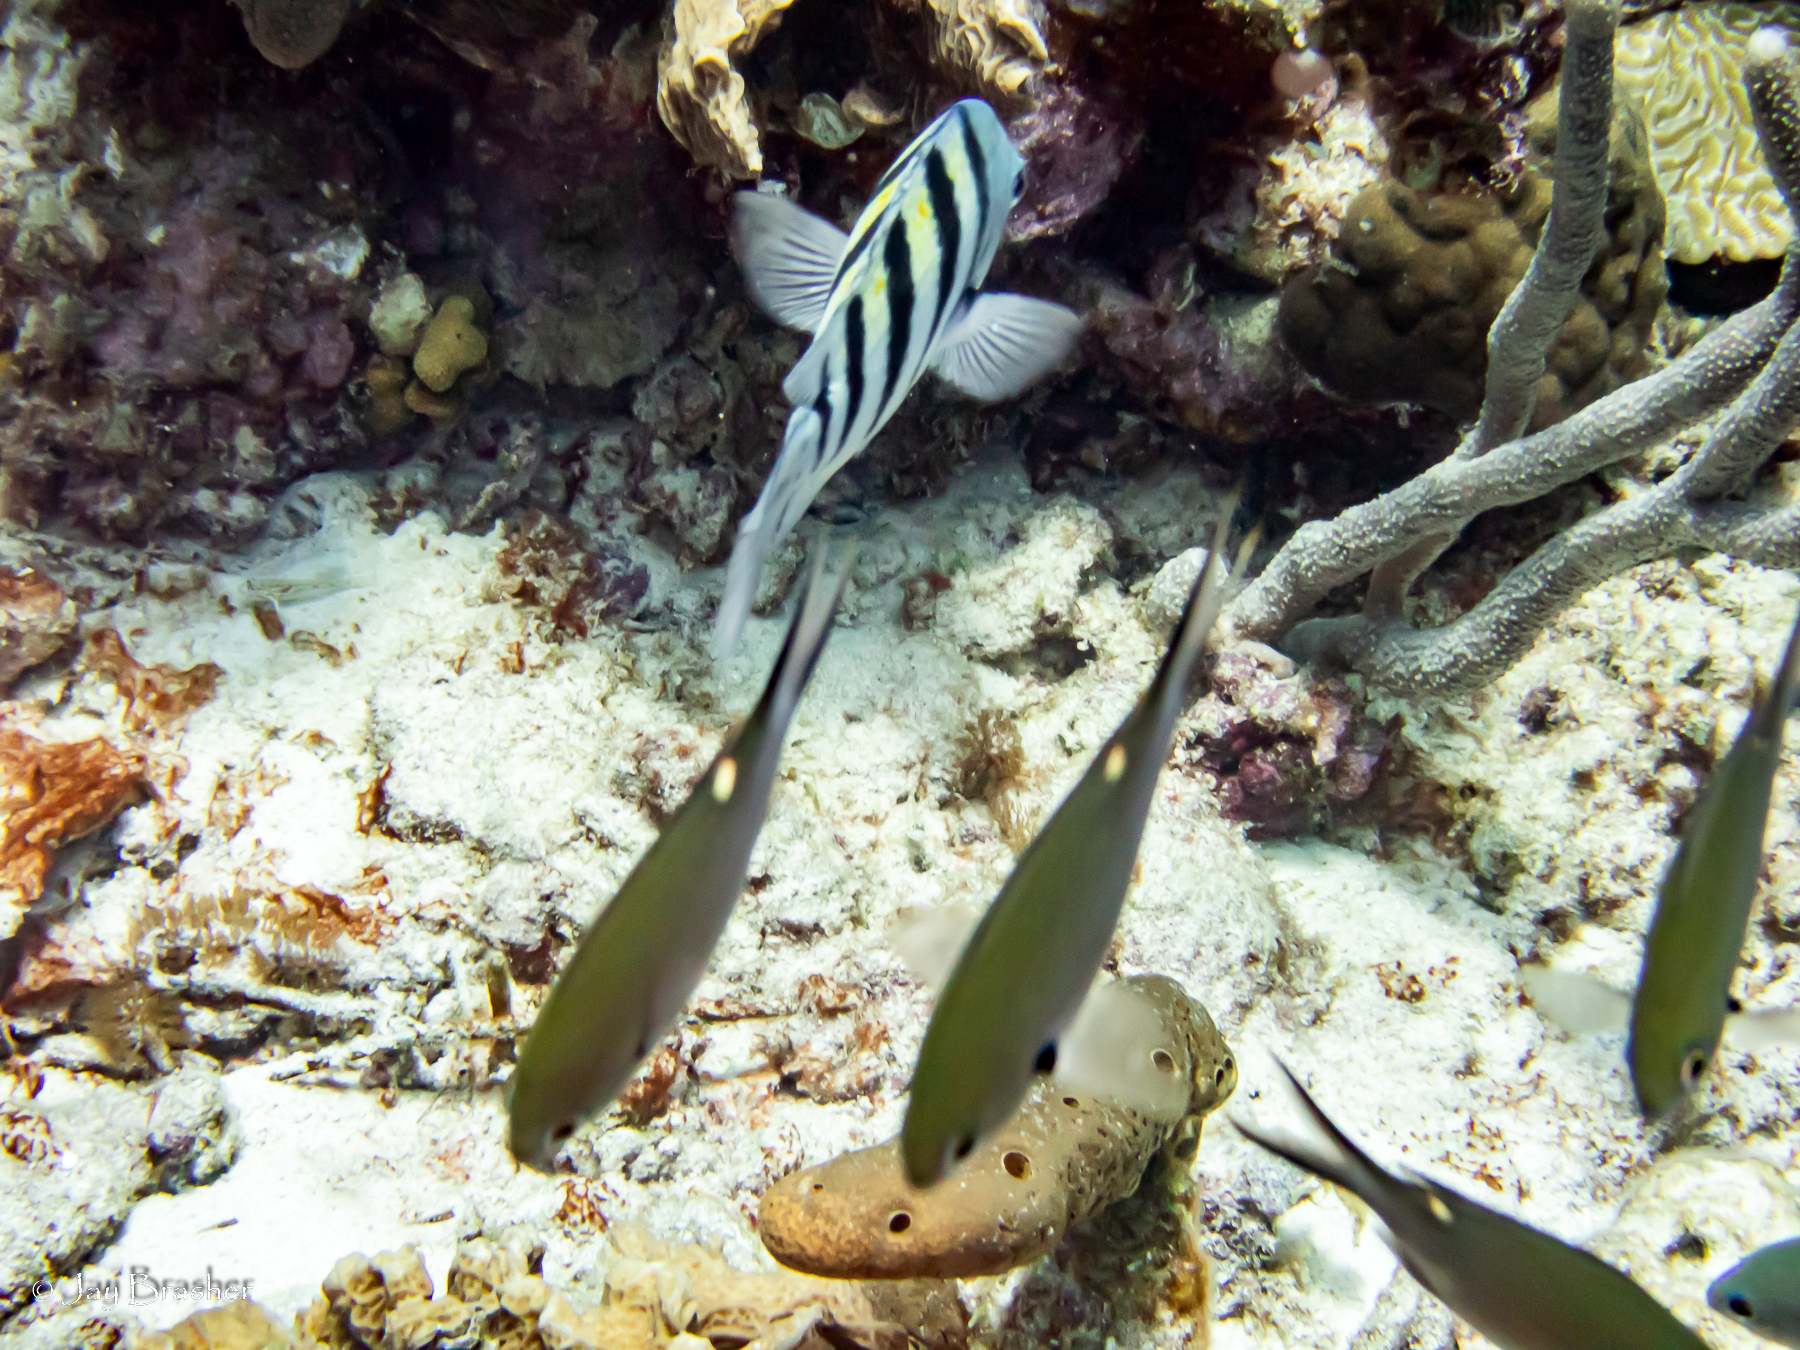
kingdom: Animalia
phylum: Chordata
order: Perciformes
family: Pomacentridae
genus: Abudefduf
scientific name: Abudefduf saxatilis
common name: Sergeant major
